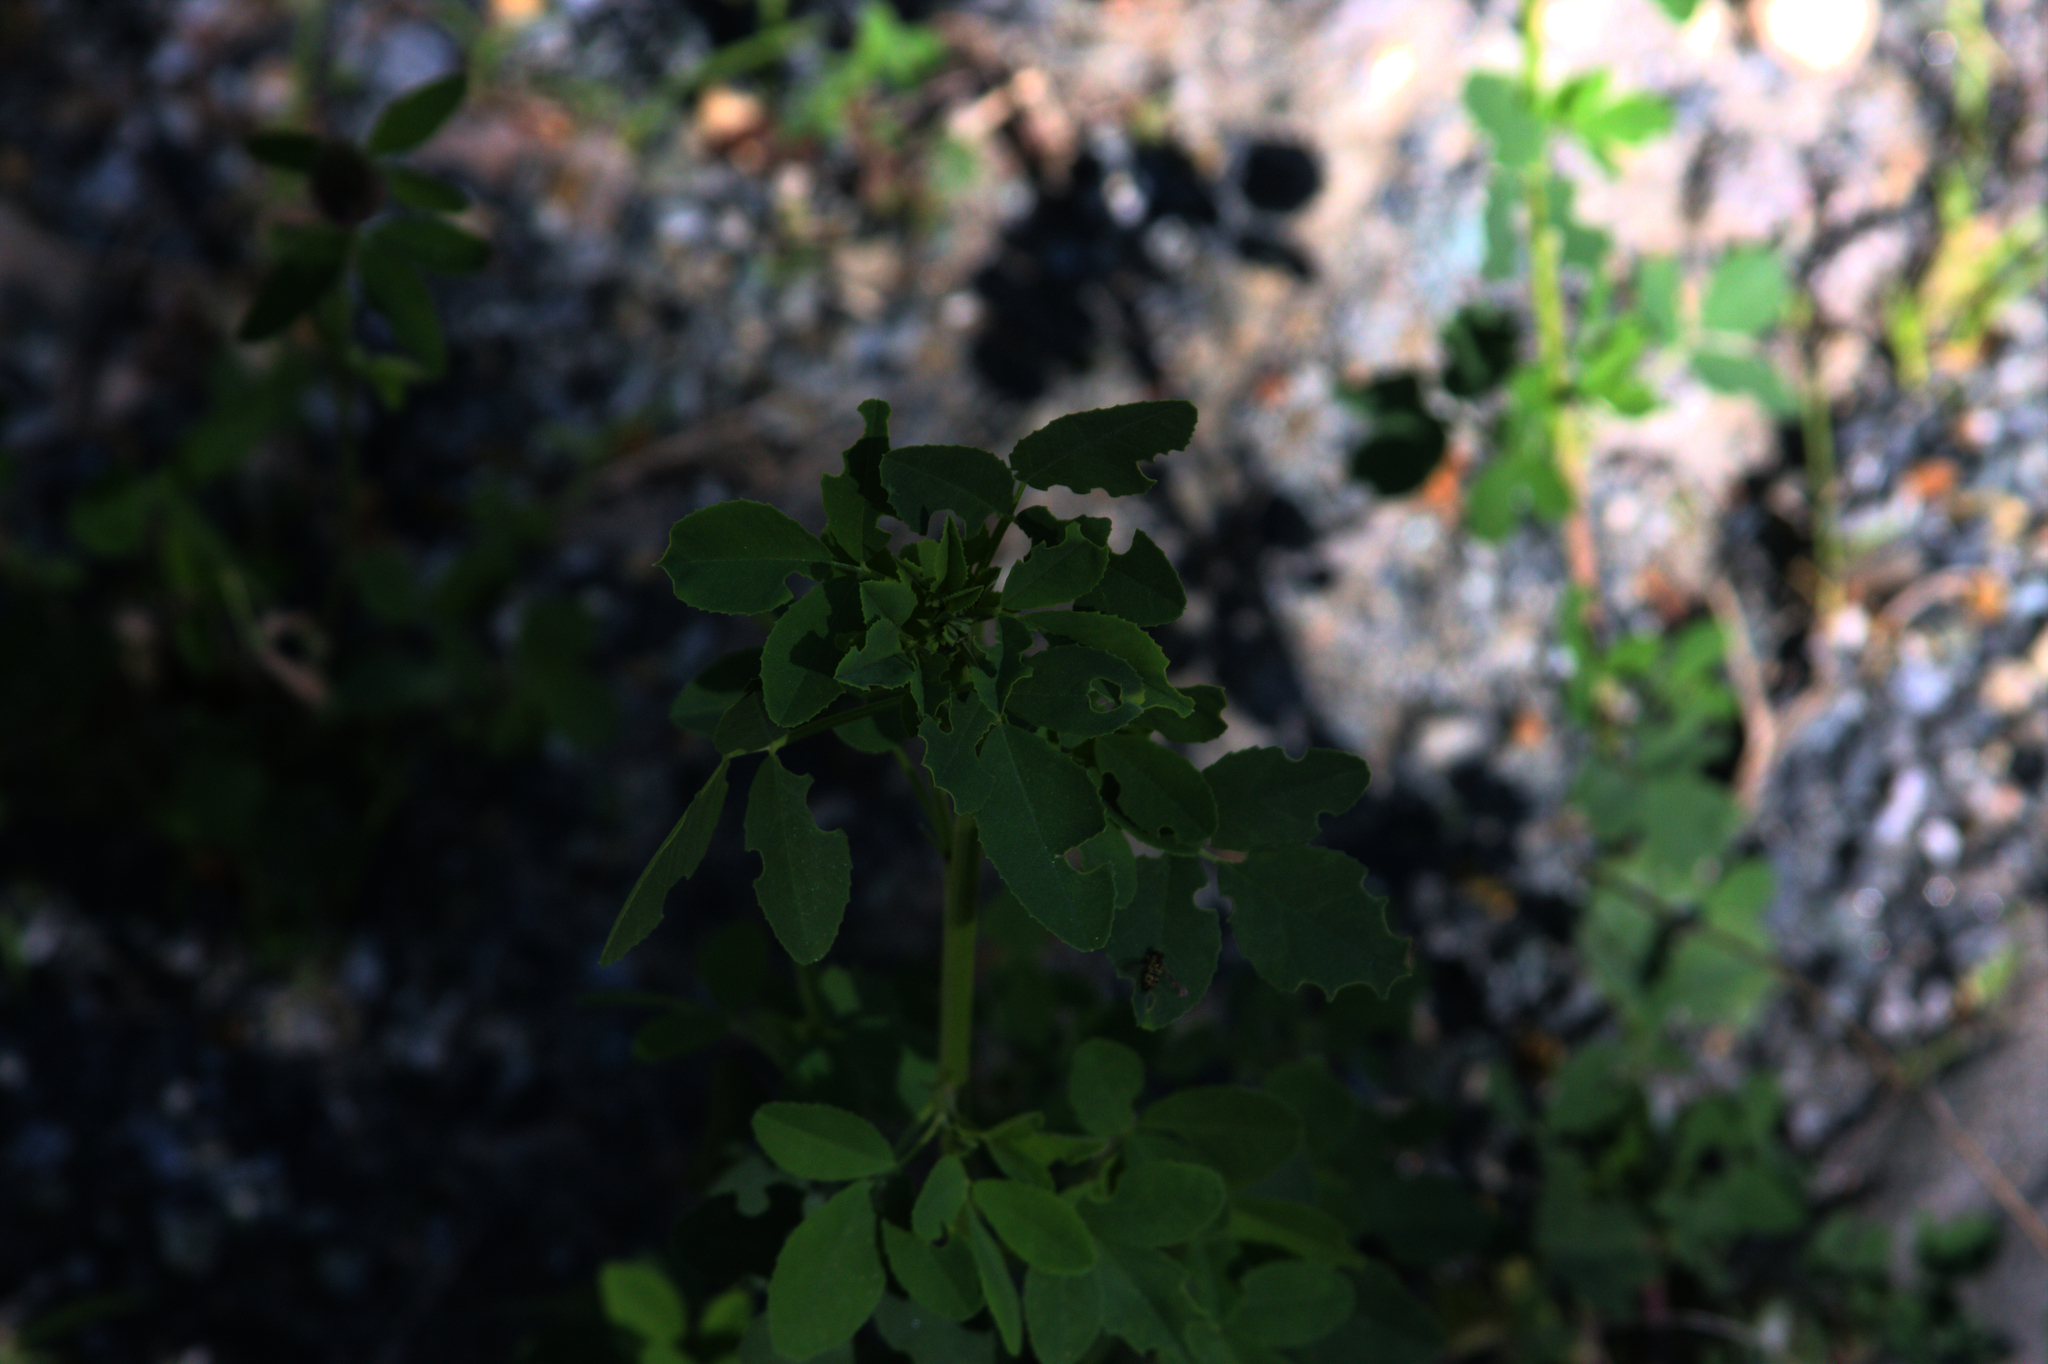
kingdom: Plantae
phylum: Tracheophyta
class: Magnoliopsida
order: Fabales
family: Fabaceae
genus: Melilotus
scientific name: Melilotus
